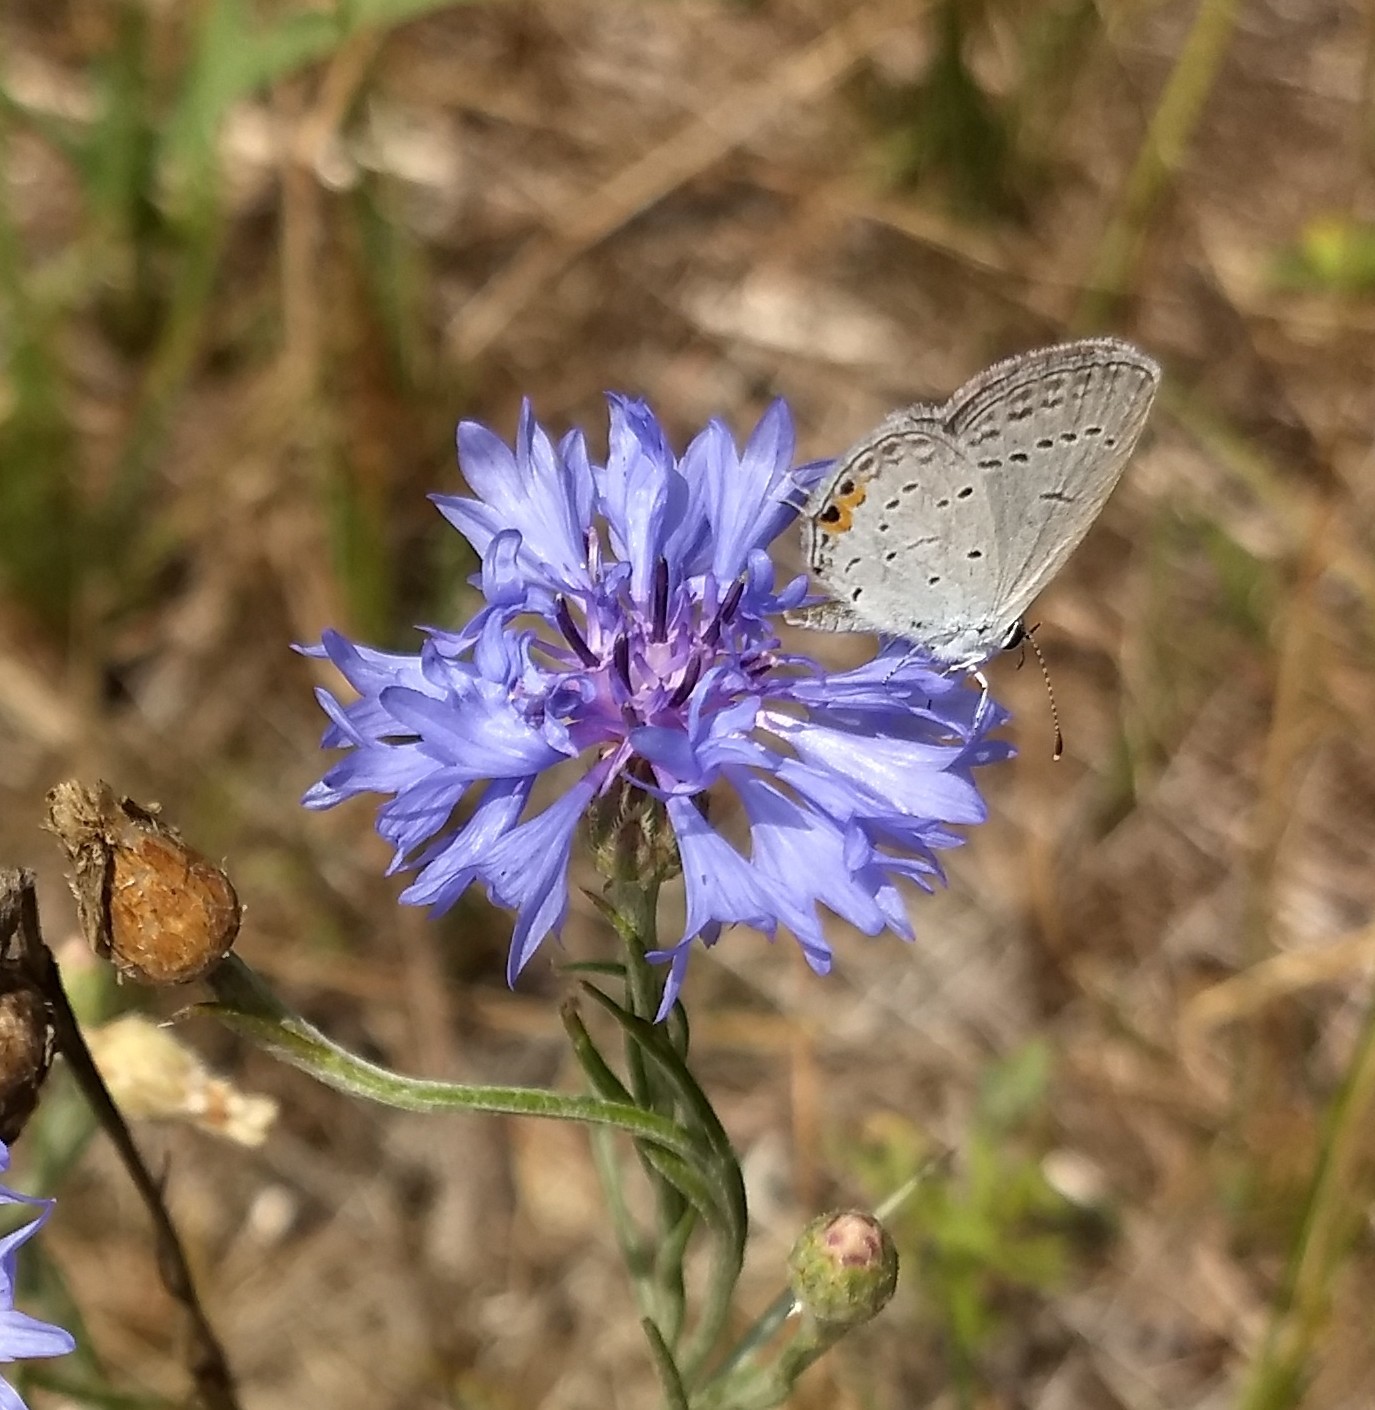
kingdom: Animalia
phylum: Arthropoda
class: Insecta
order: Lepidoptera
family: Lycaenidae
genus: Elkalyce
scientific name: Elkalyce comyntas
